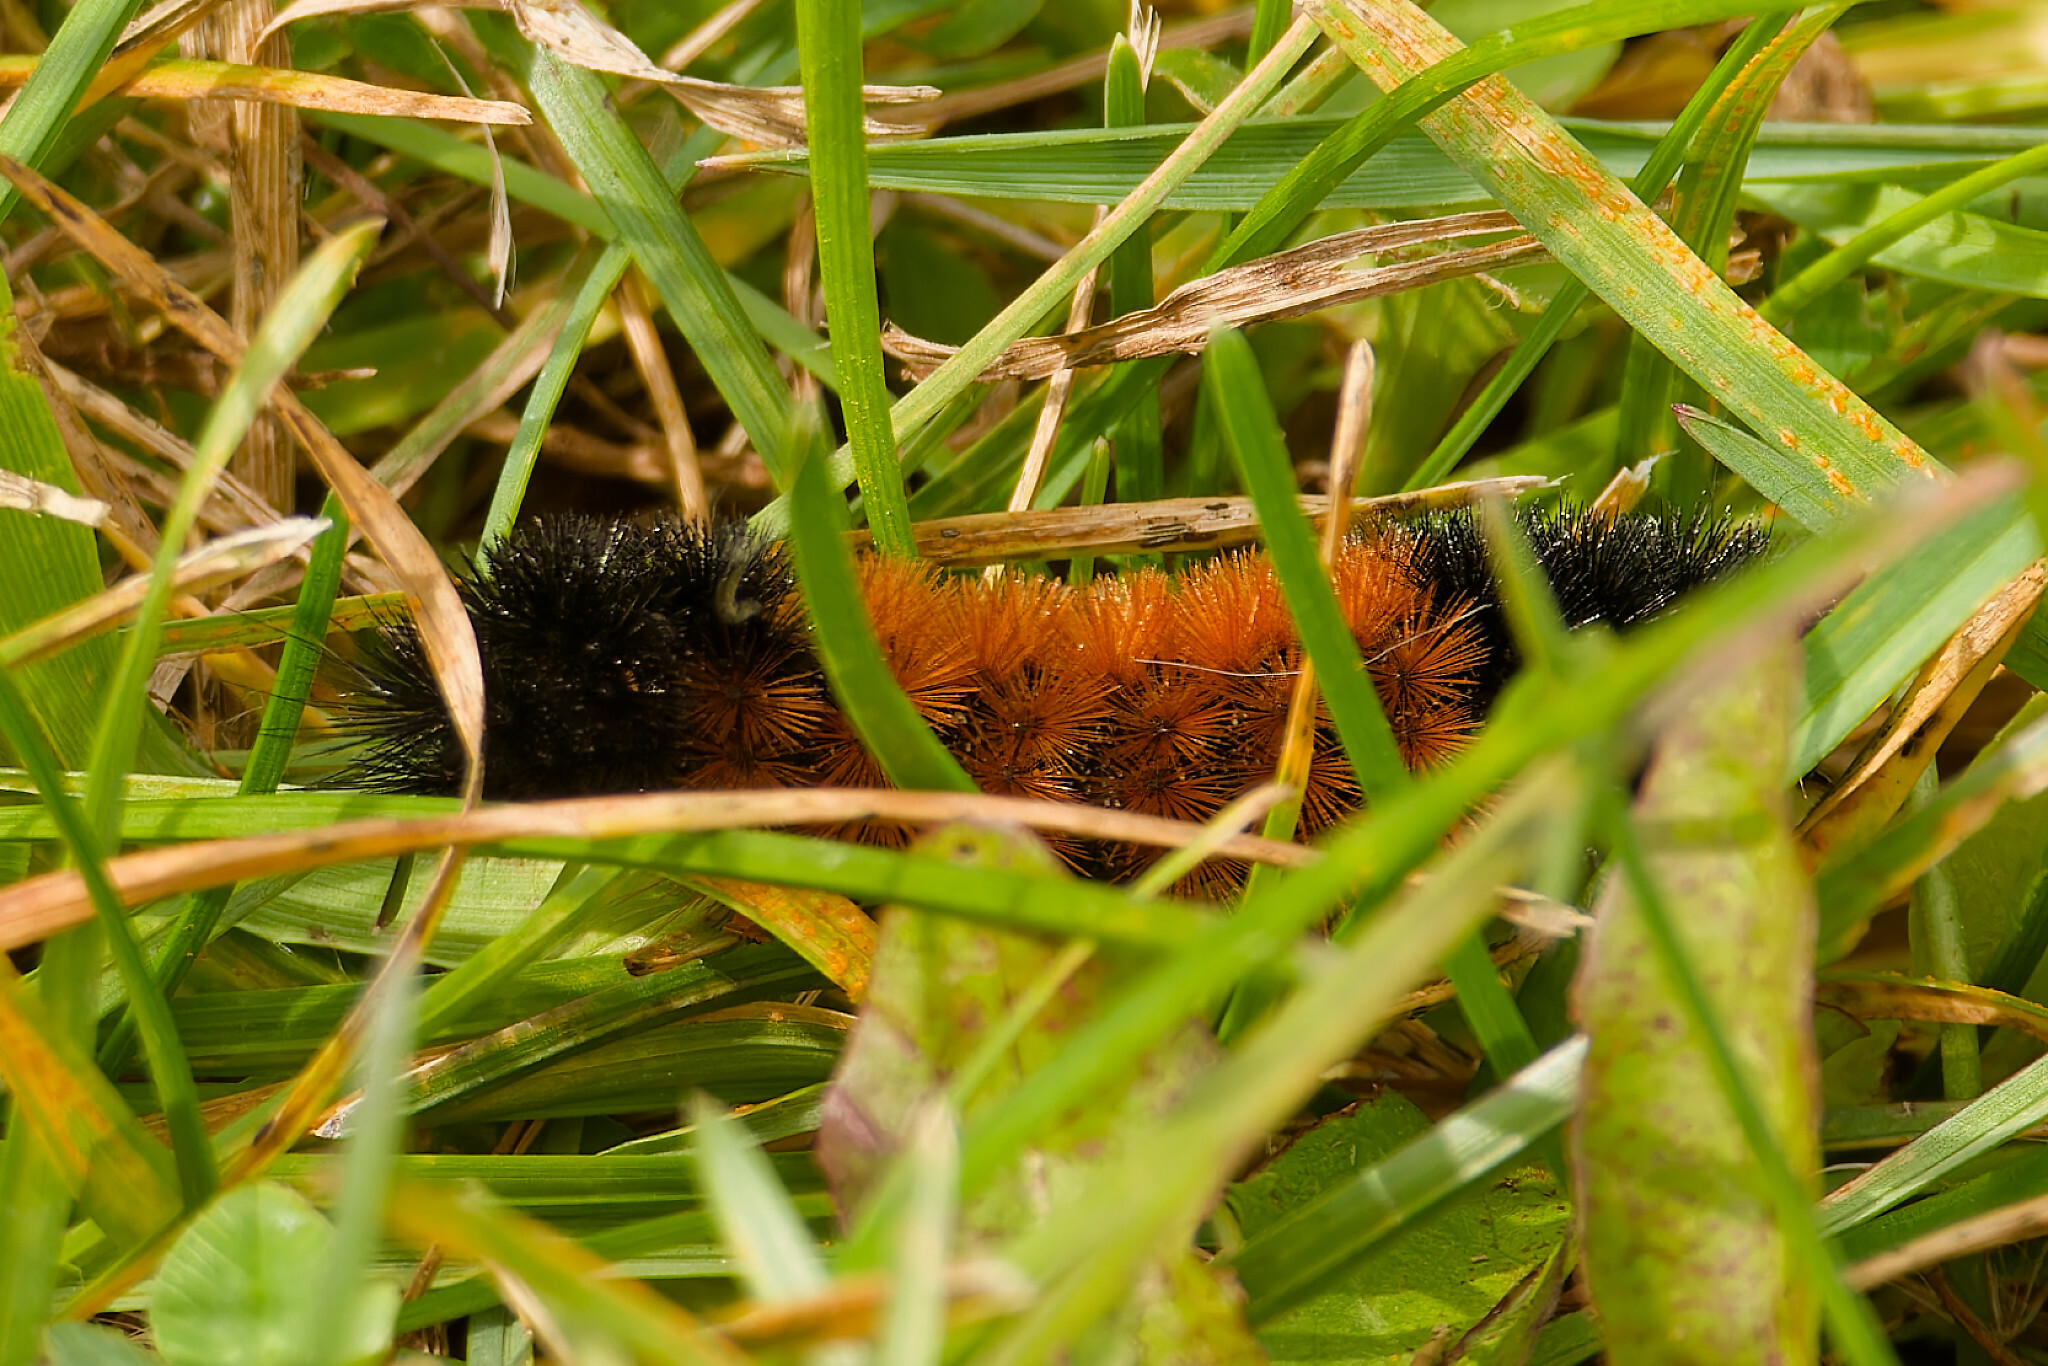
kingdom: Animalia
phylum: Arthropoda
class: Insecta
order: Lepidoptera
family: Erebidae
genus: Pyrrharctia
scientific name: Pyrrharctia isabella
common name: Isabella tiger moth
